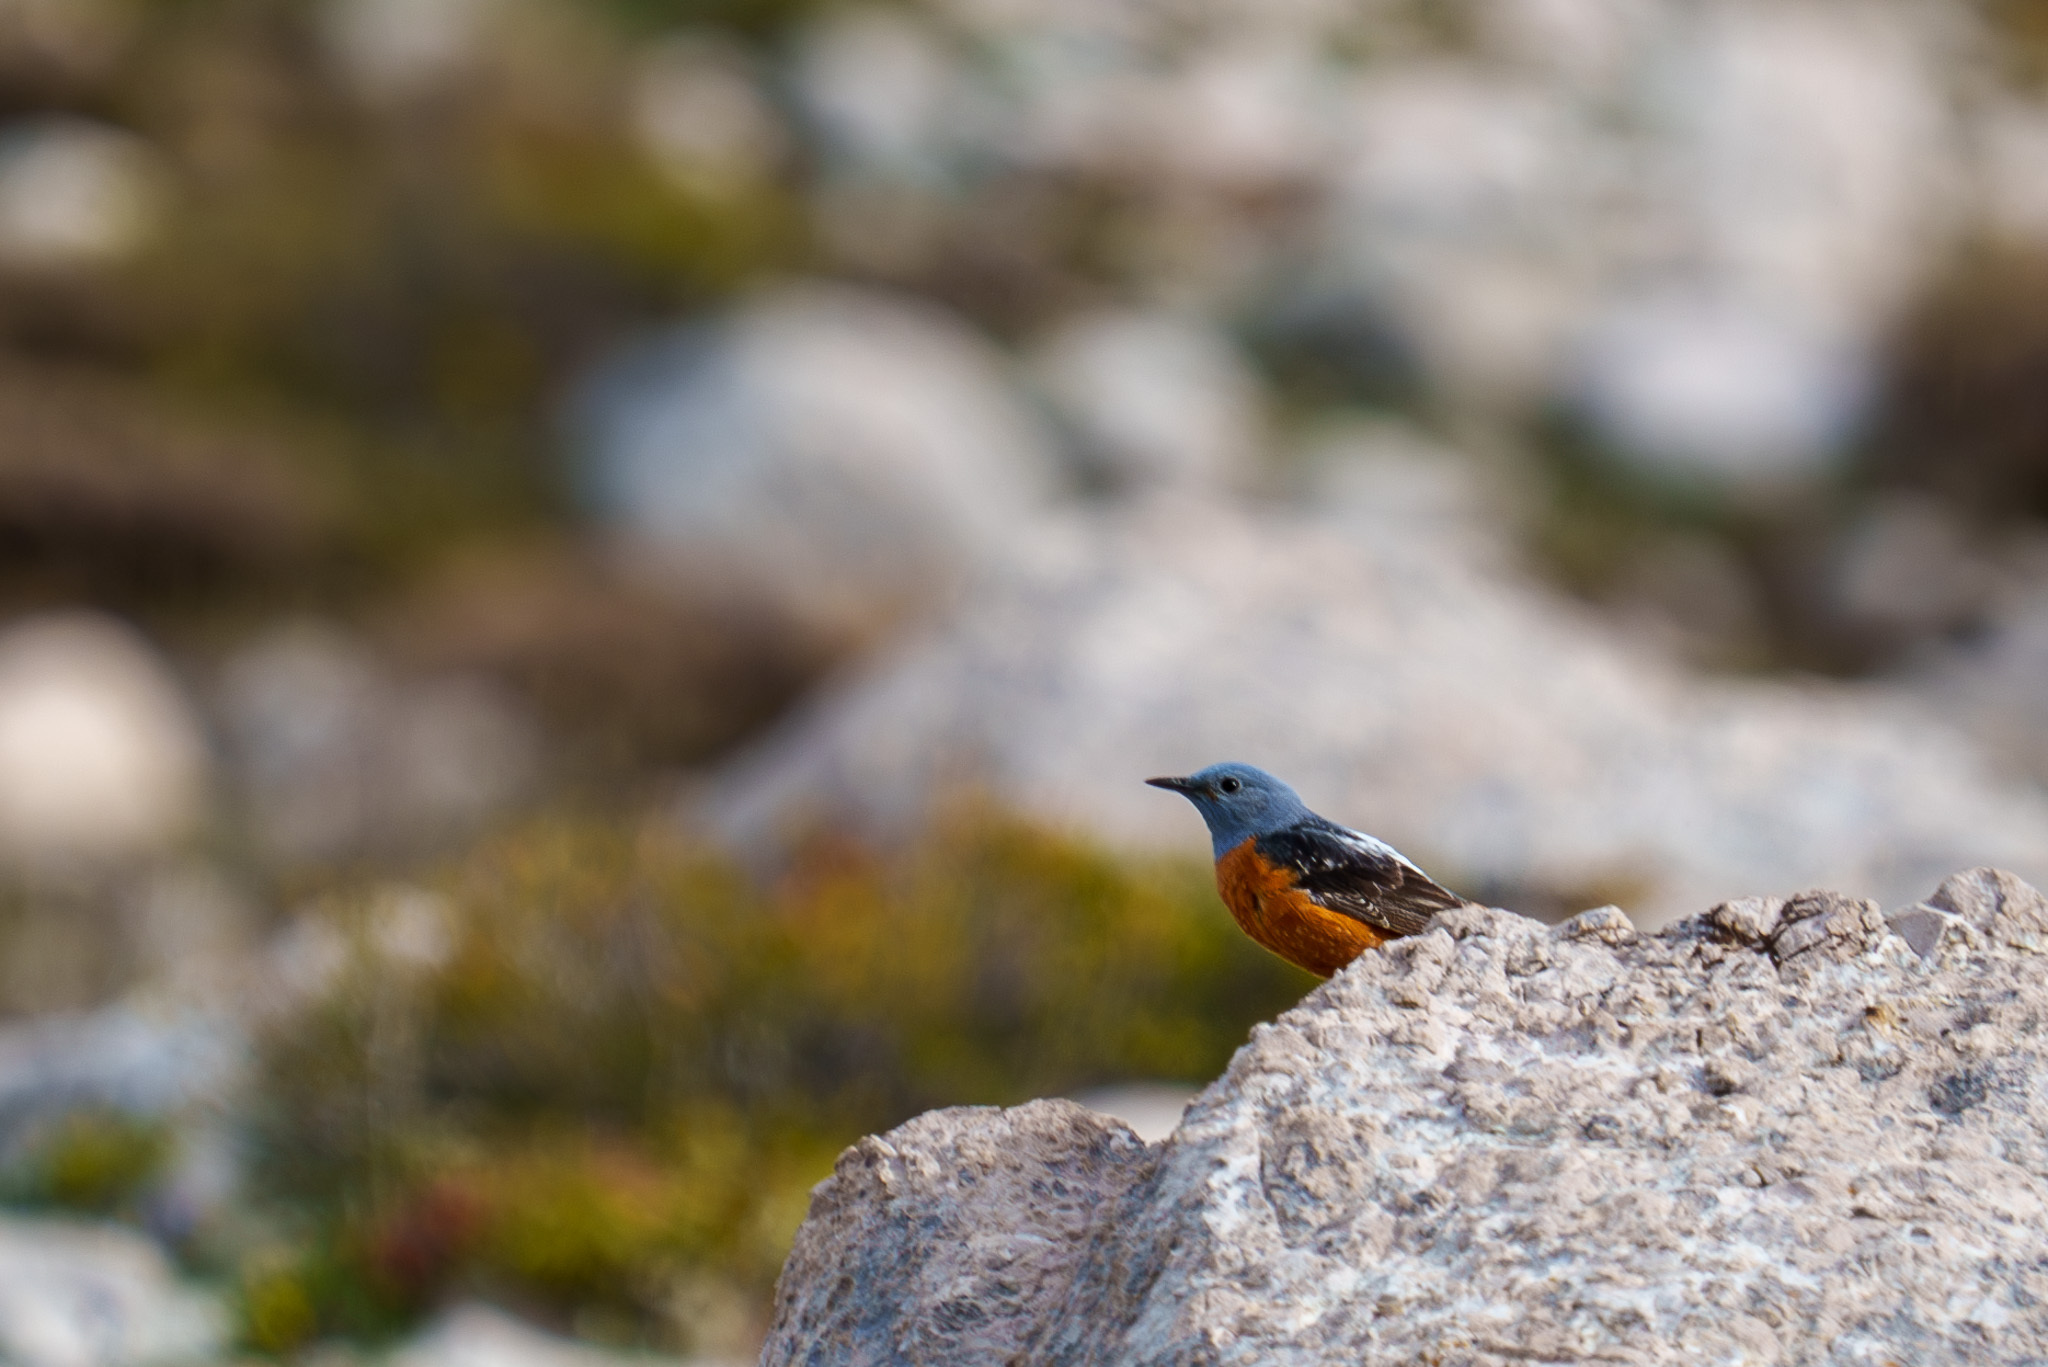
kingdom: Animalia
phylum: Chordata
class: Aves
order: Passeriformes
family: Muscicapidae
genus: Monticola
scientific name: Monticola saxatilis
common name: Rufous-tailed rock thrush
